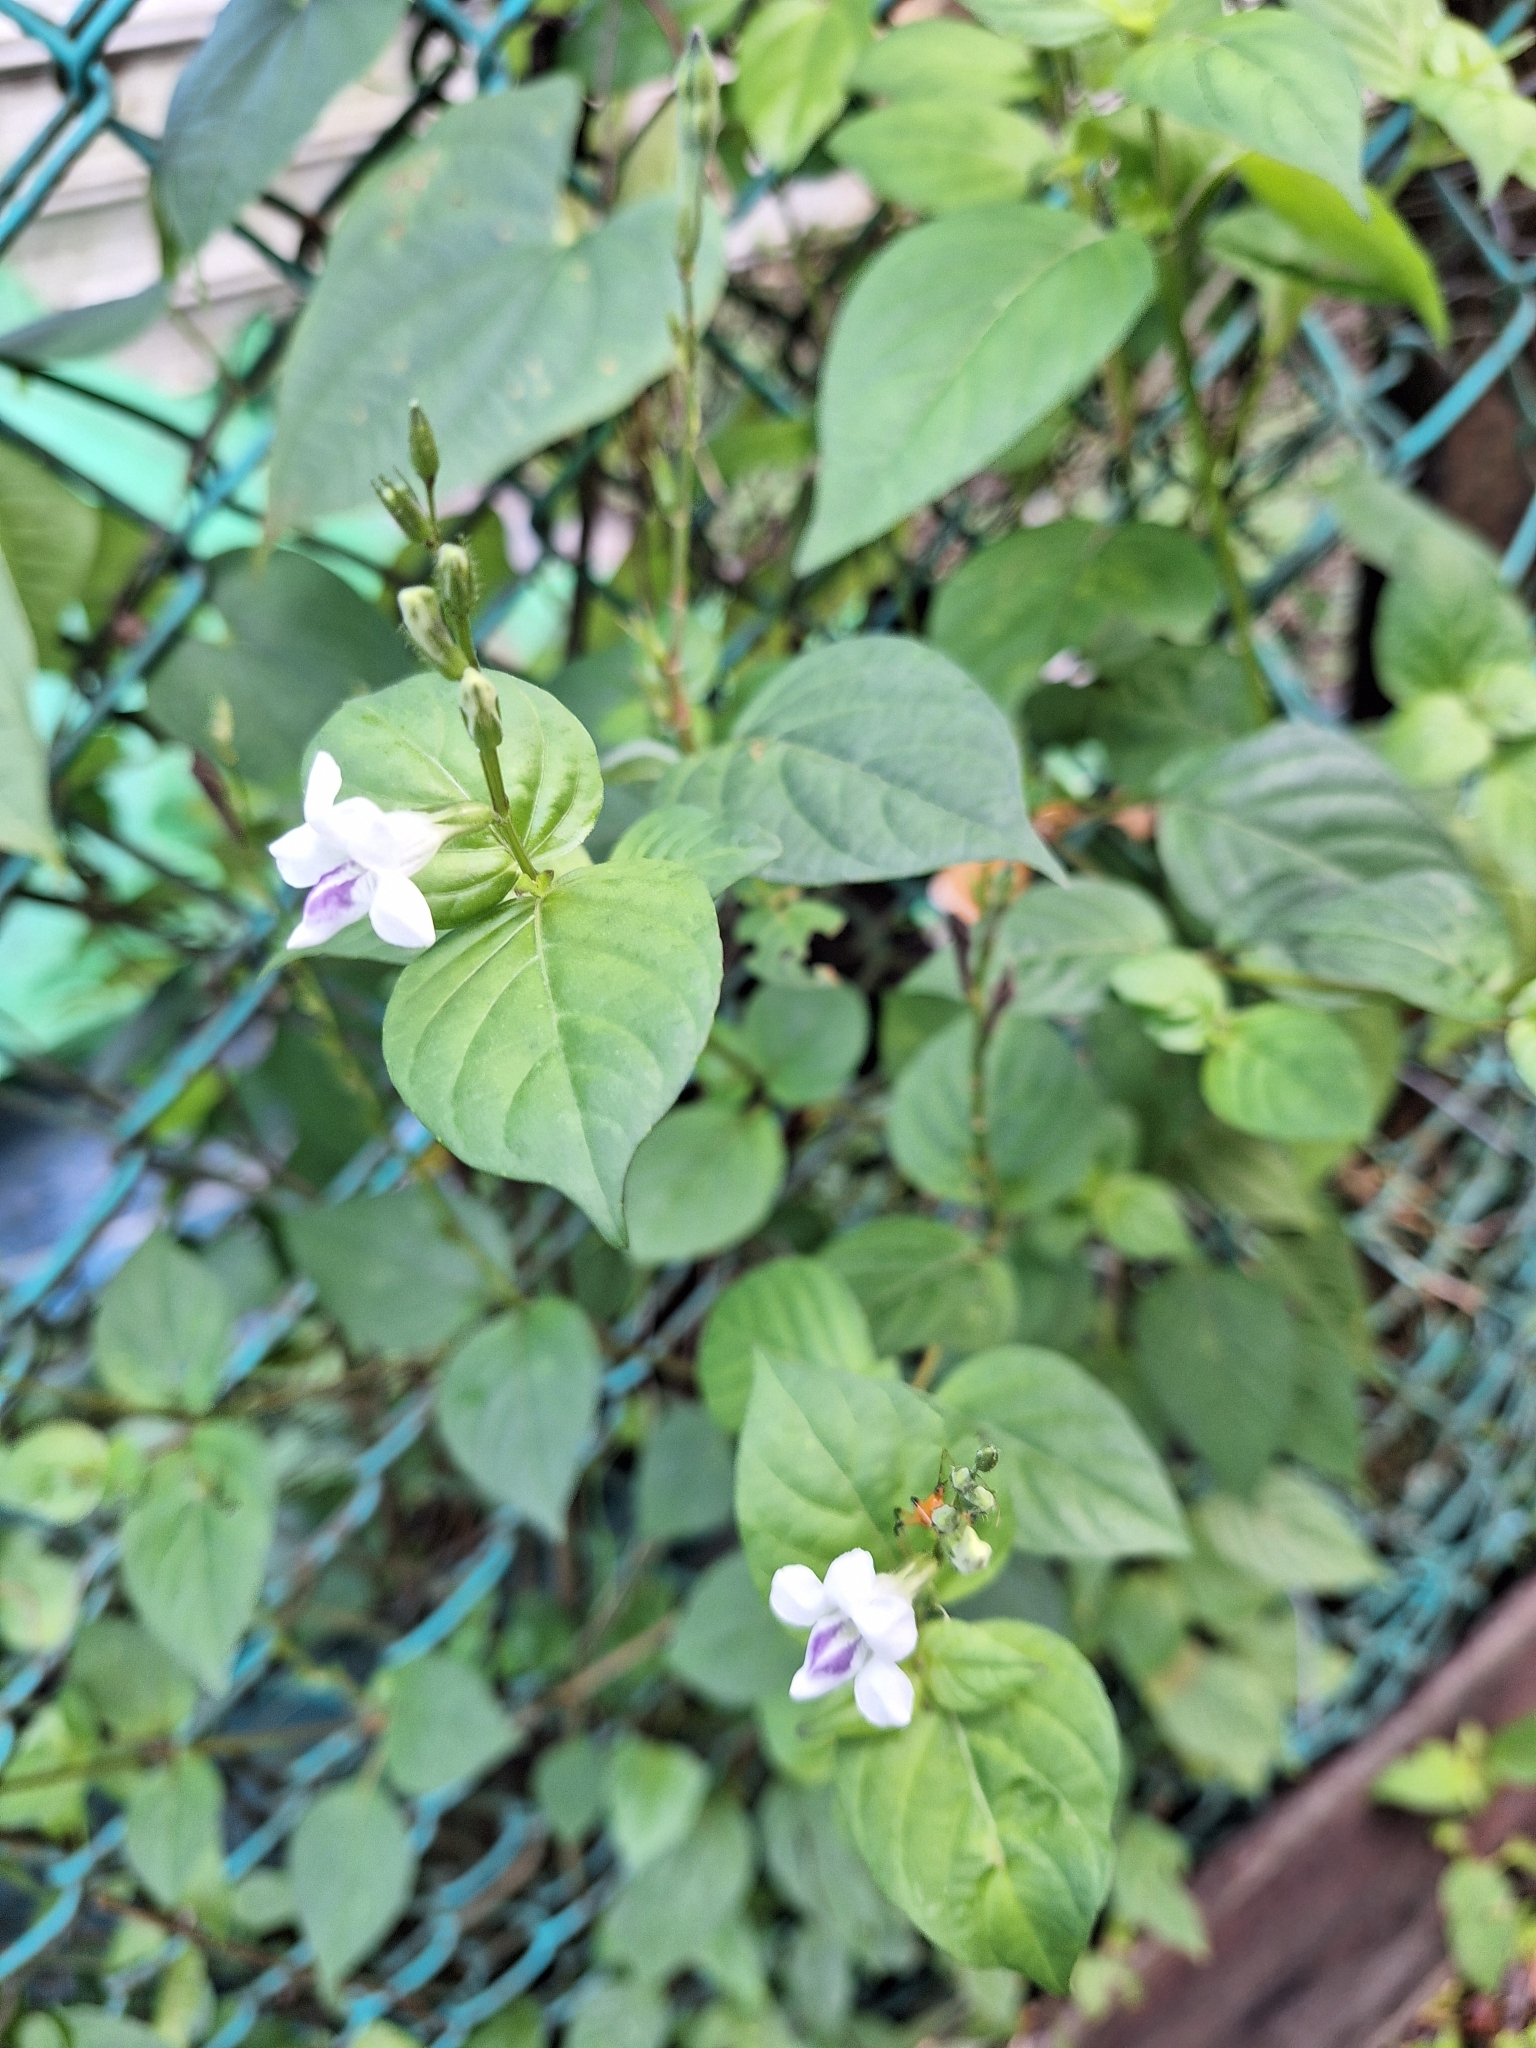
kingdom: Plantae
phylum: Tracheophyta
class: Magnoliopsida
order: Lamiales
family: Acanthaceae
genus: Asystasia
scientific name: Asystasia intrusa
